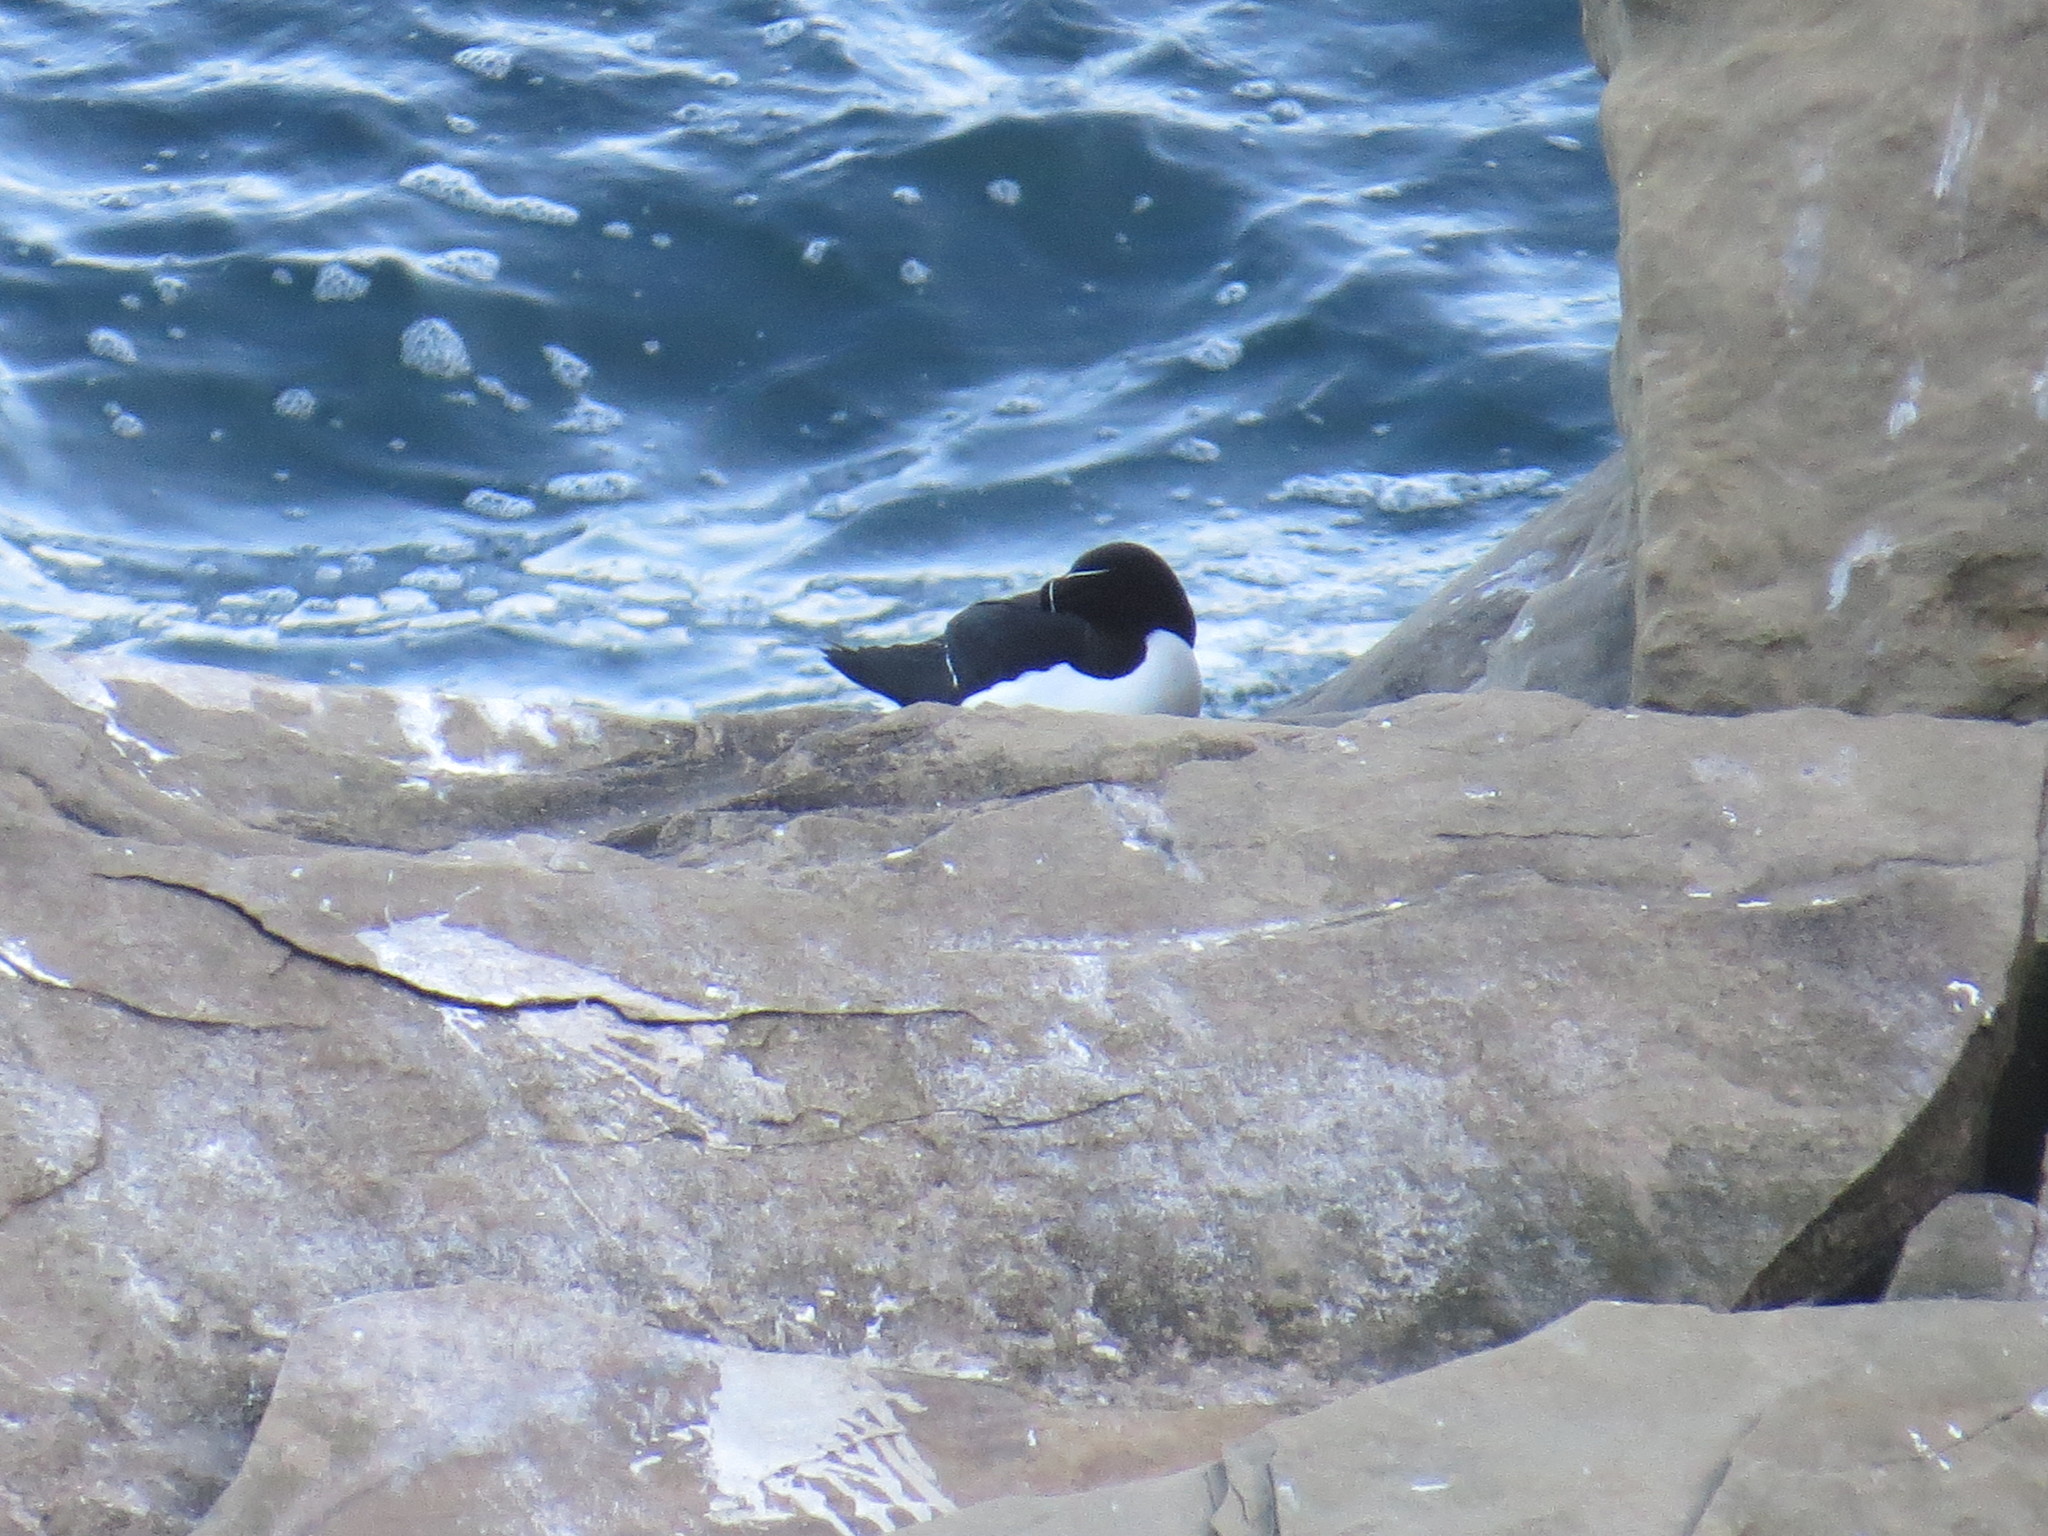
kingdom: Animalia
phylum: Chordata
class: Aves
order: Charadriiformes
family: Alcidae
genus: Alca
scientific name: Alca torda
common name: Razorbill
